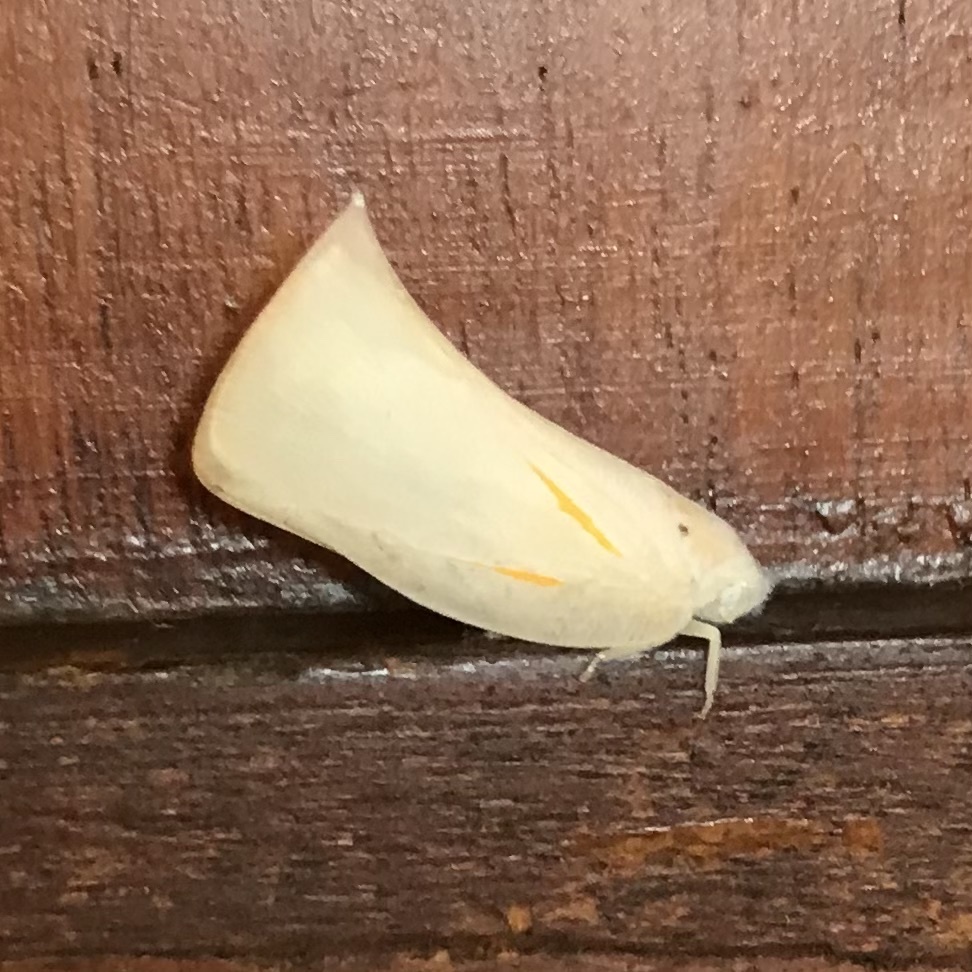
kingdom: Animalia
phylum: Arthropoda
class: Insecta
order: Hemiptera
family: Flatidae
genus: Lawana
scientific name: Lawana candida
